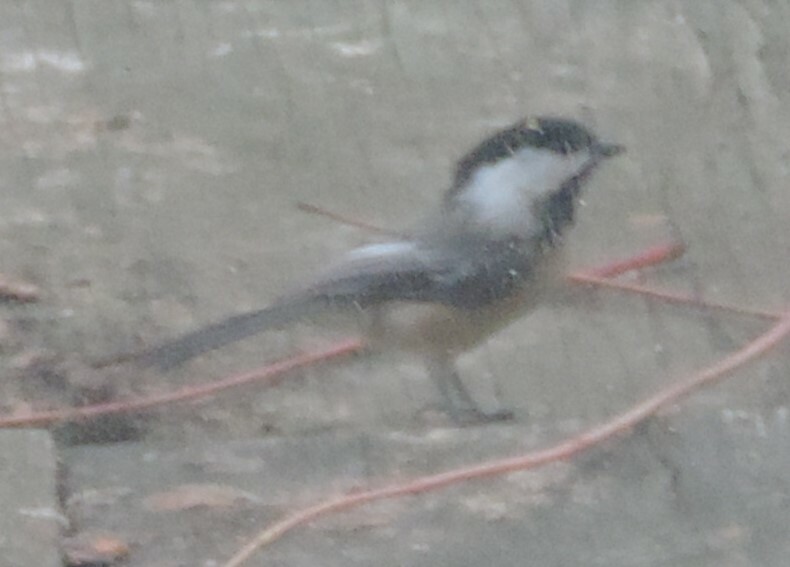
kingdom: Animalia
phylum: Chordata
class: Aves
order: Passeriformes
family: Paridae
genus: Poecile
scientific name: Poecile atricapillus
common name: Black-capped chickadee
